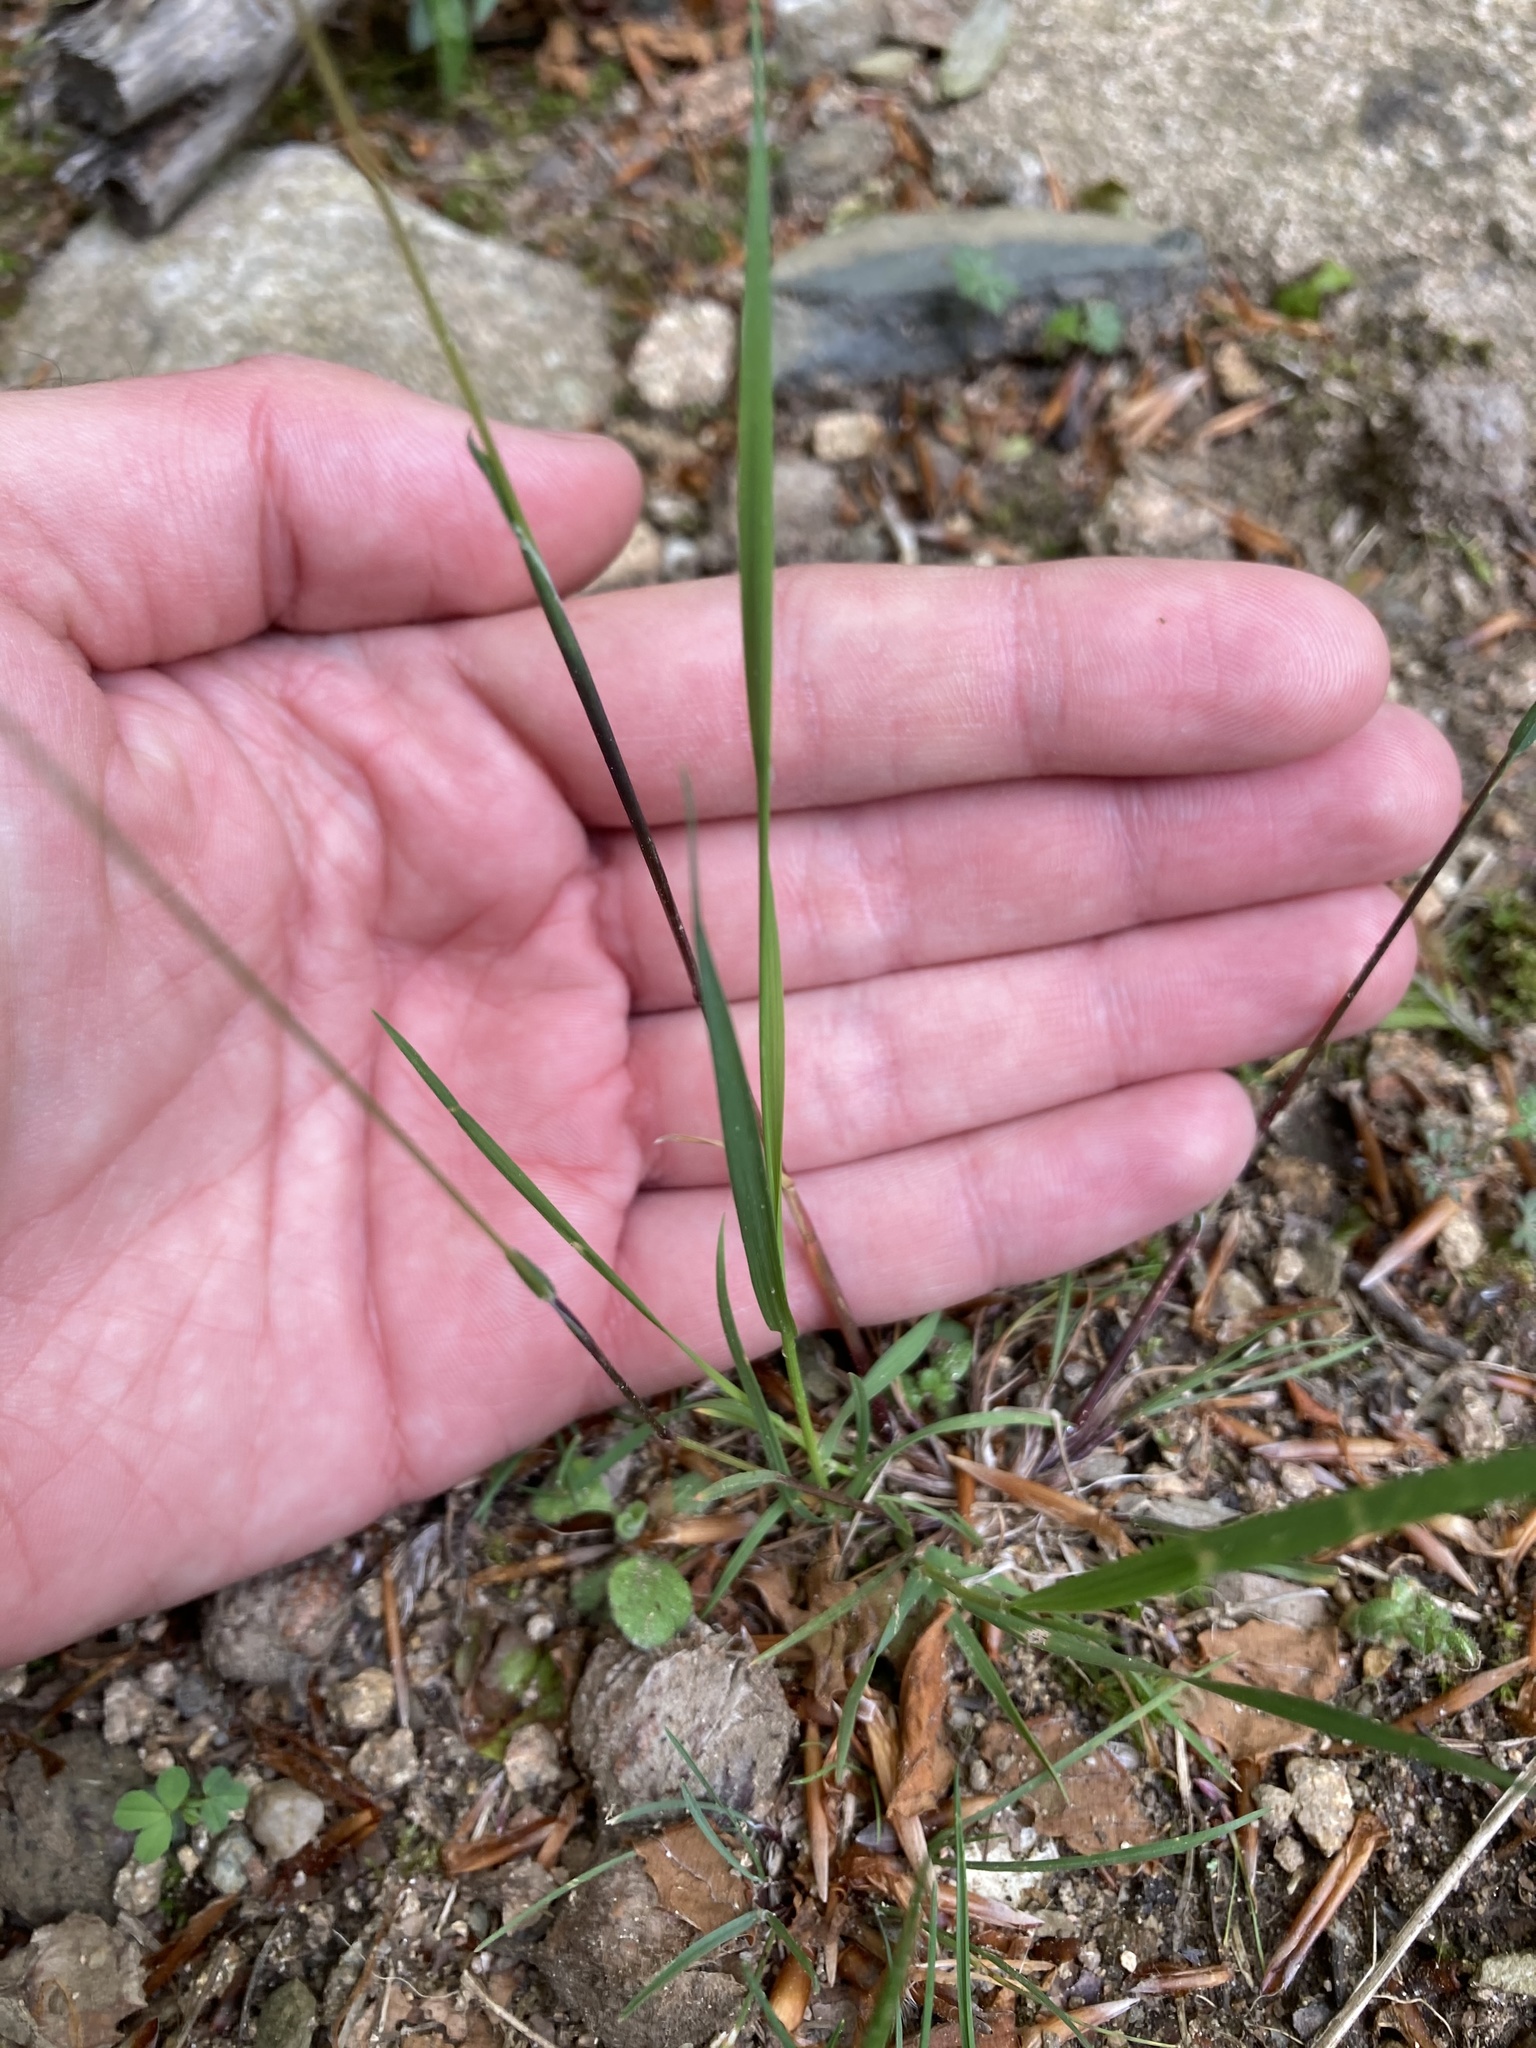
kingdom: Plantae
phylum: Tracheophyta
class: Liliopsida
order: Poales
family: Poaceae
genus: Poa
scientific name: Poa bulbosa
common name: Bulbous bluegrass
